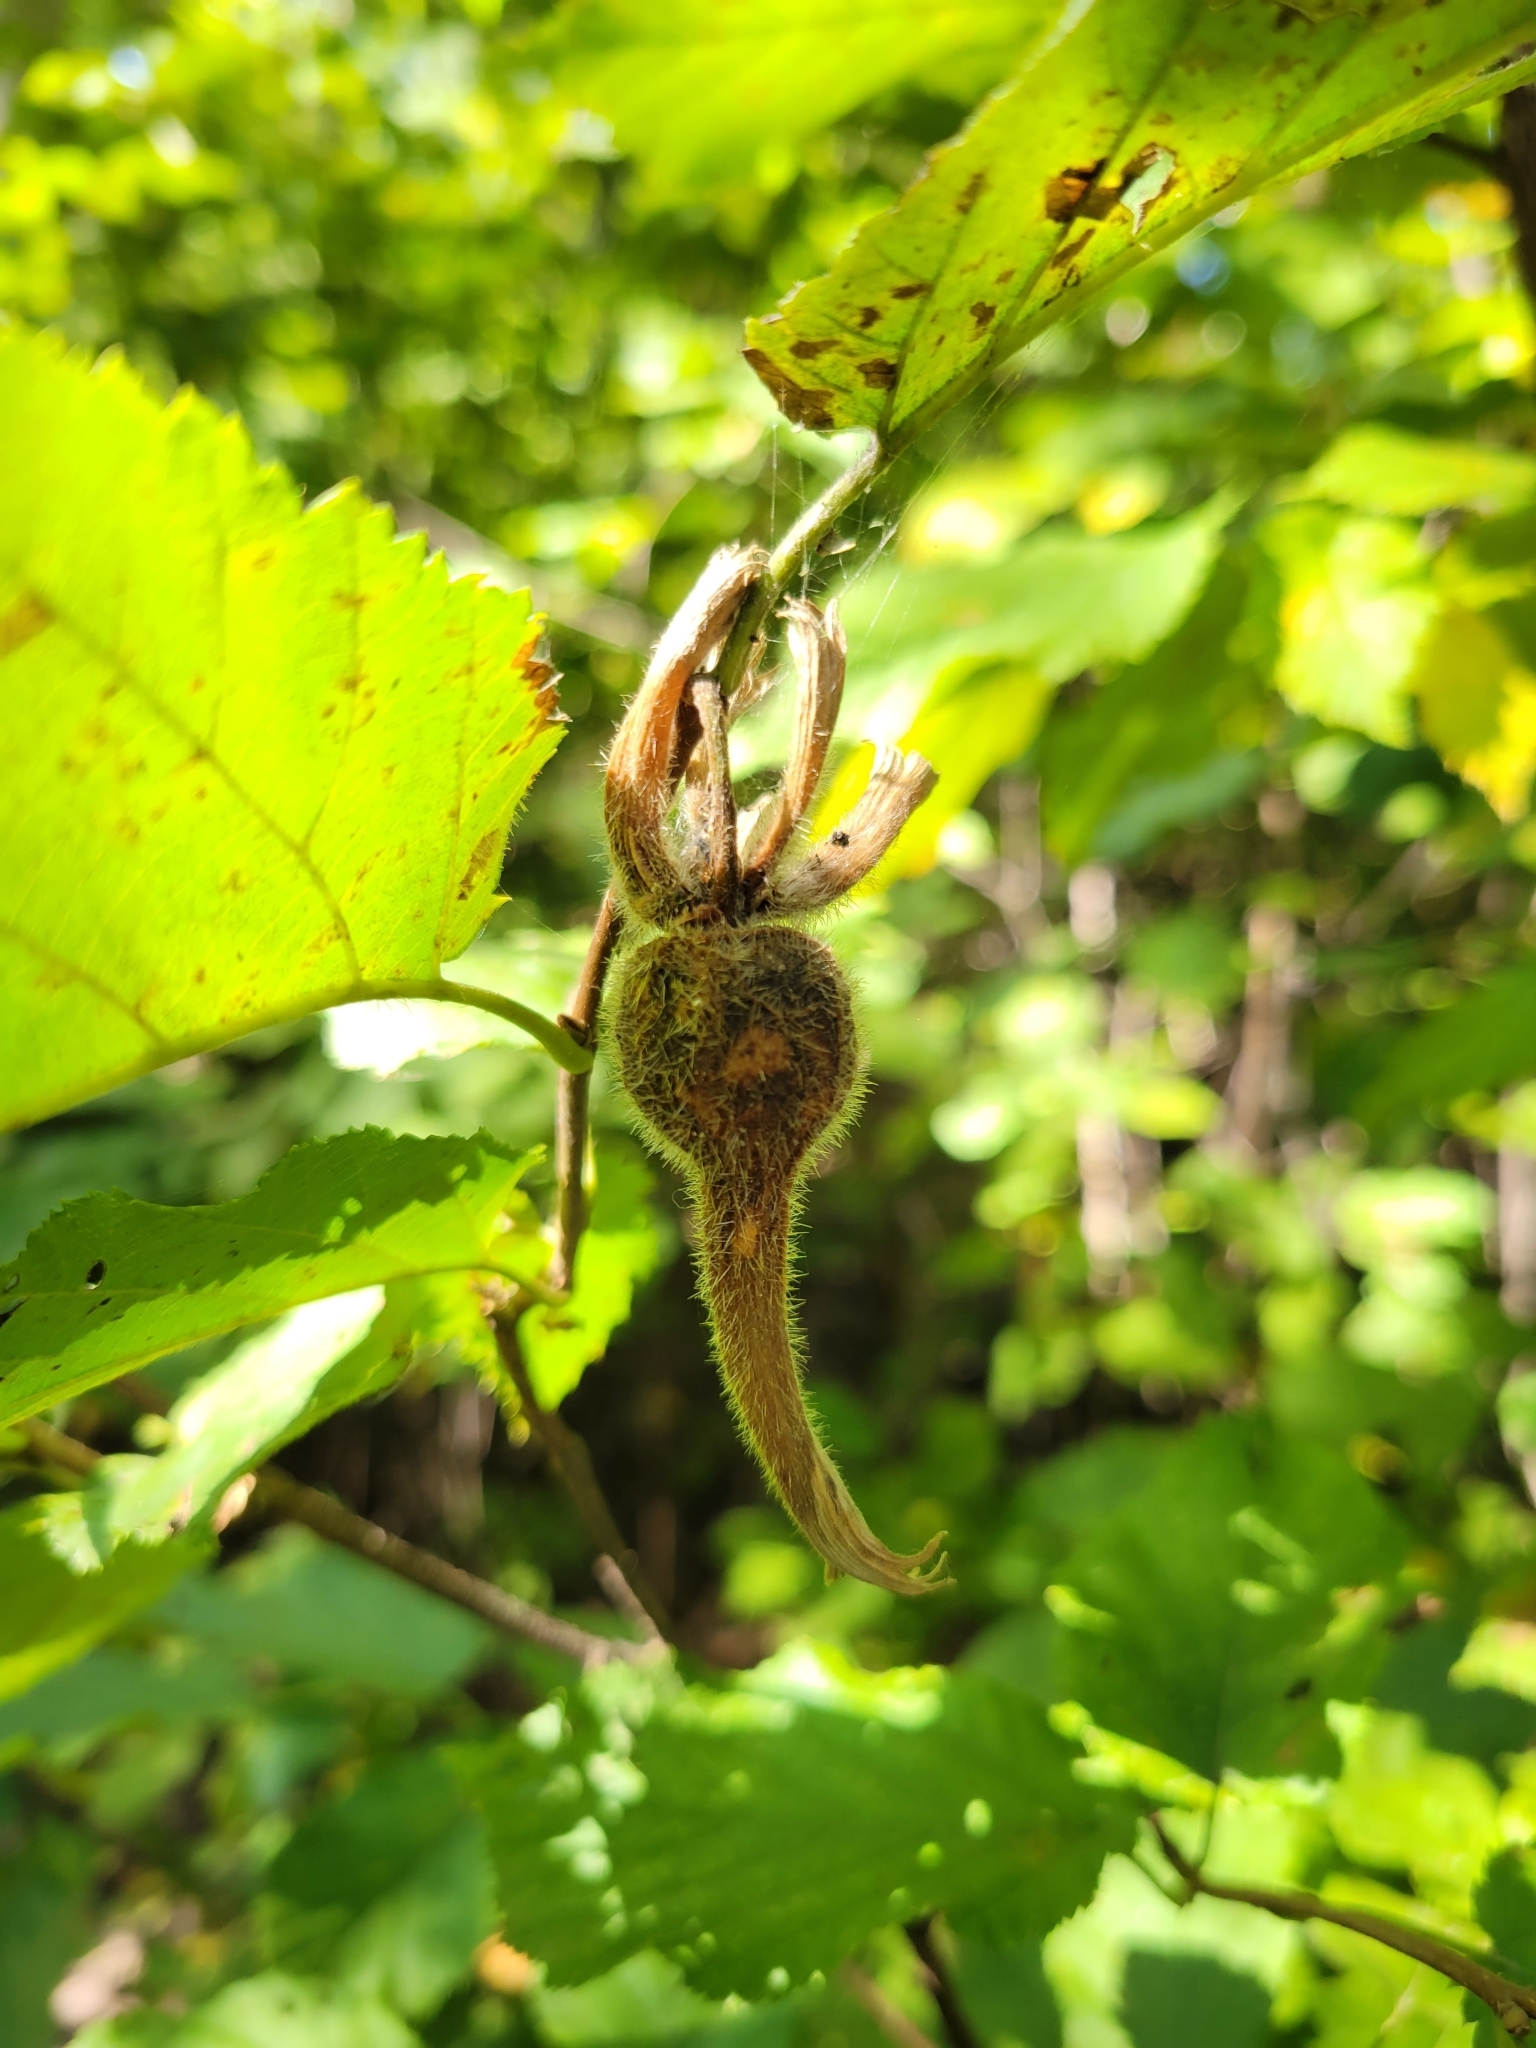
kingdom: Plantae
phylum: Tracheophyta
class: Magnoliopsida
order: Fagales
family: Betulaceae
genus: Corylus
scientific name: Corylus cornuta
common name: Beaked hazel
